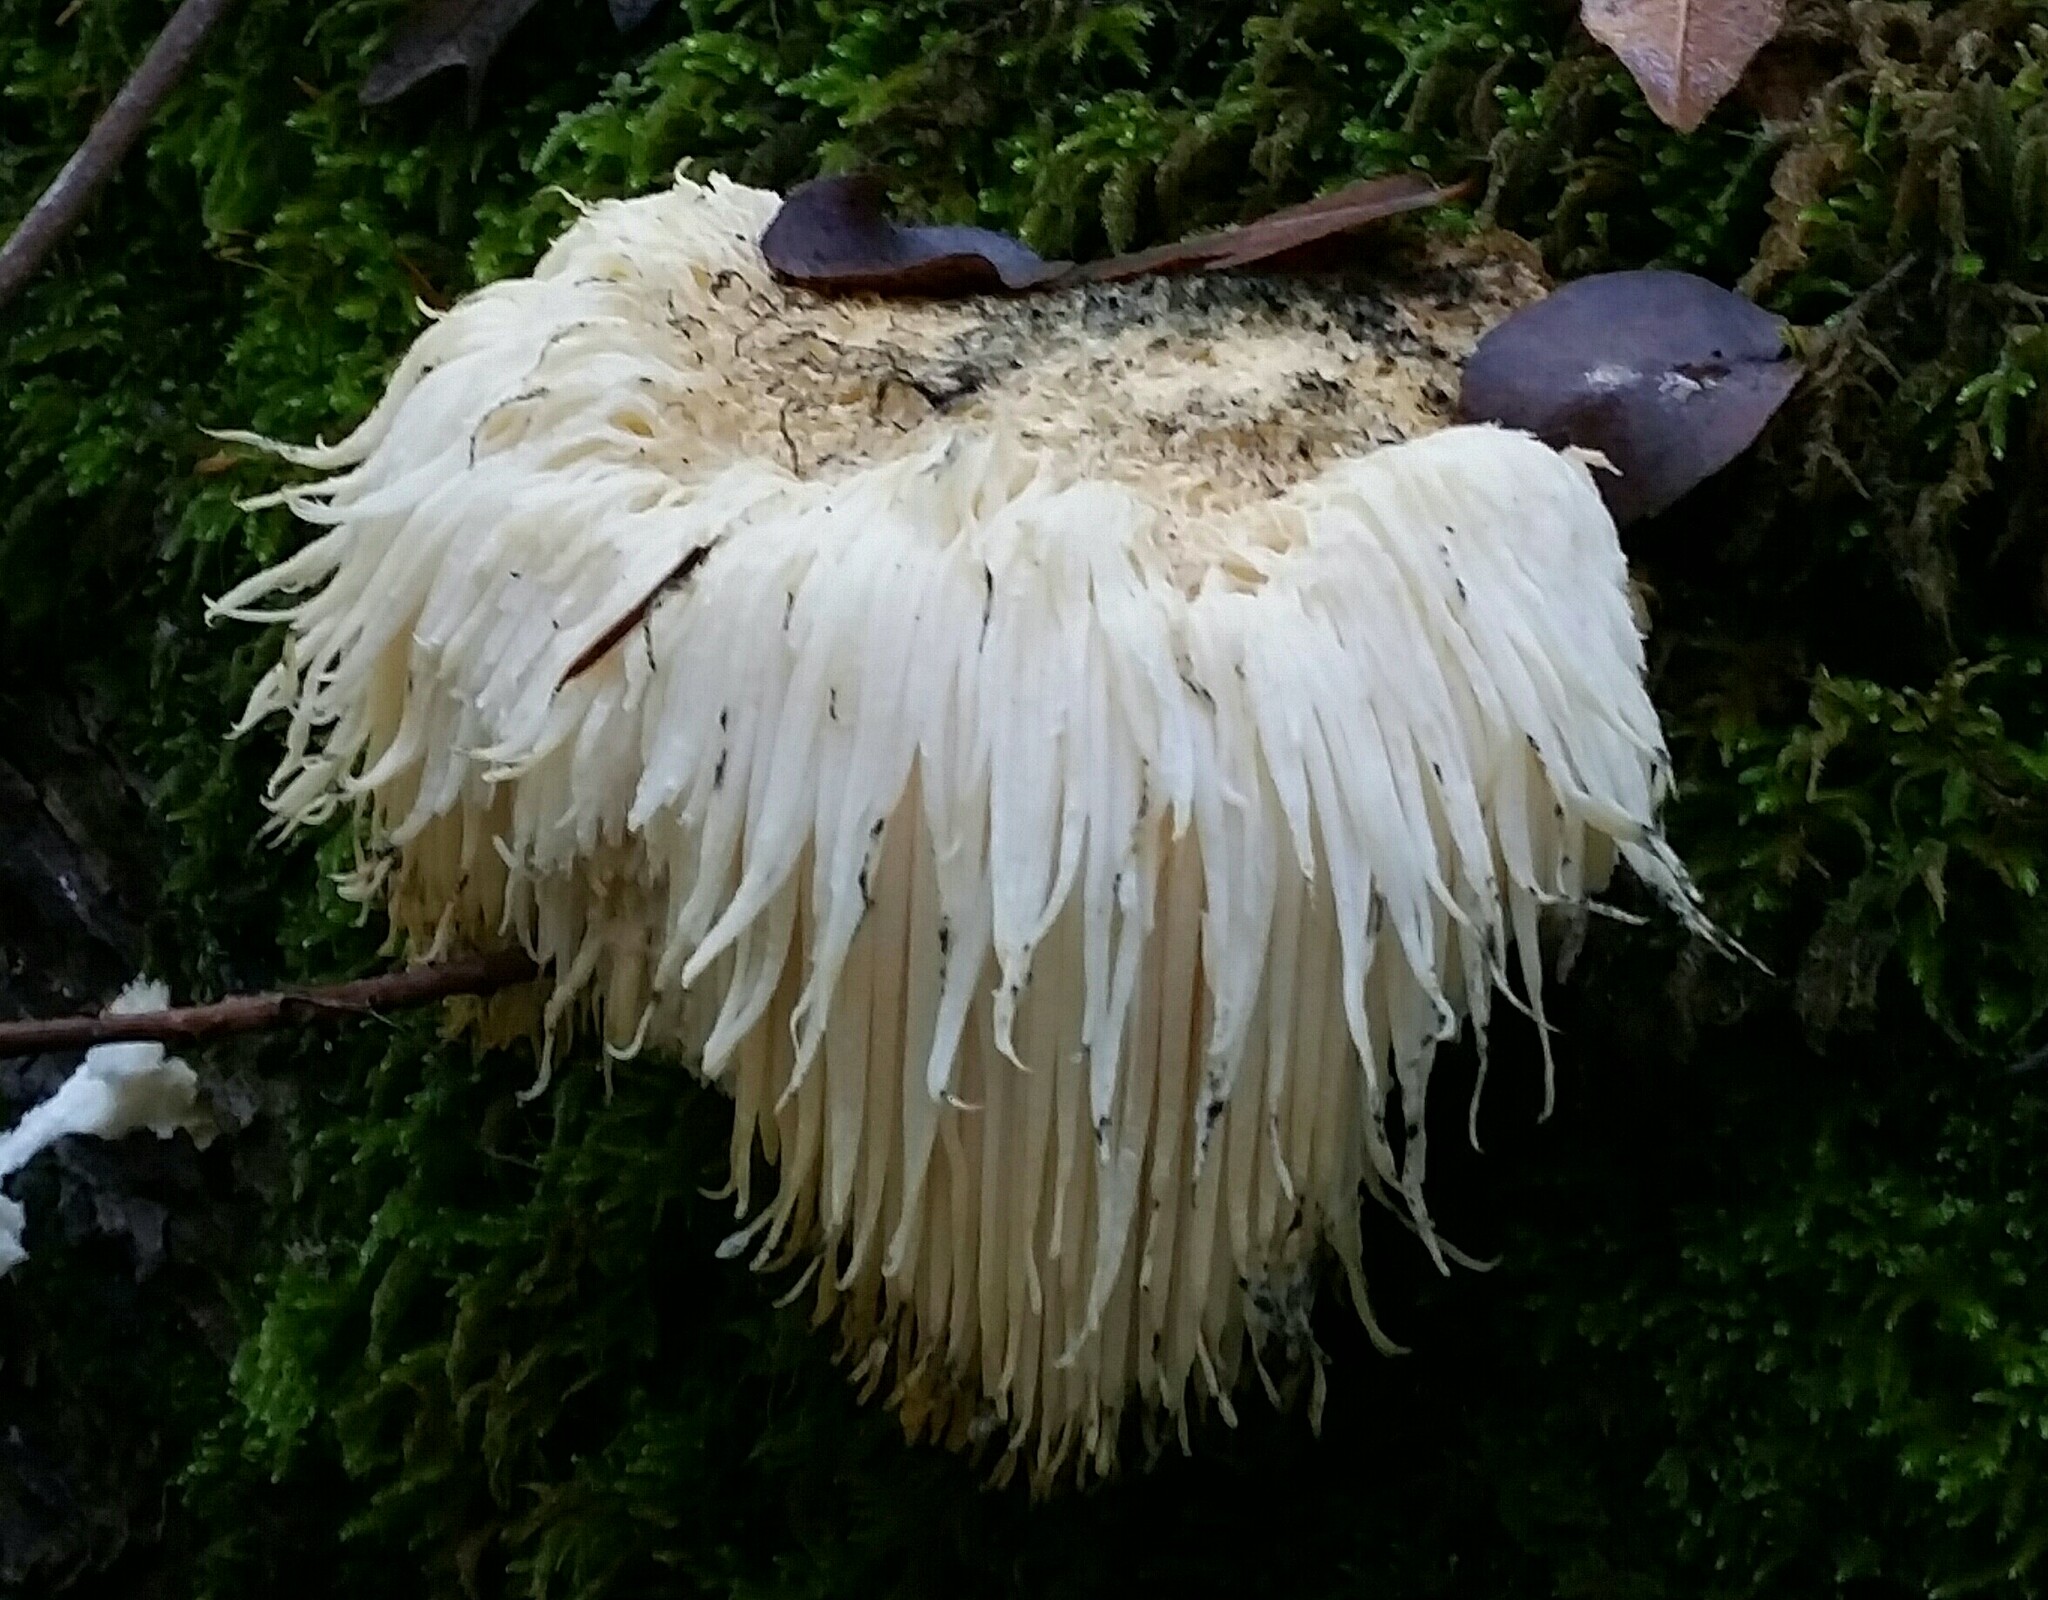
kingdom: Fungi
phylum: Basidiomycota
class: Agaricomycetes
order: Russulales
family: Hericiaceae
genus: Hericium
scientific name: Hericium erinaceus
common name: Bearded tooth
